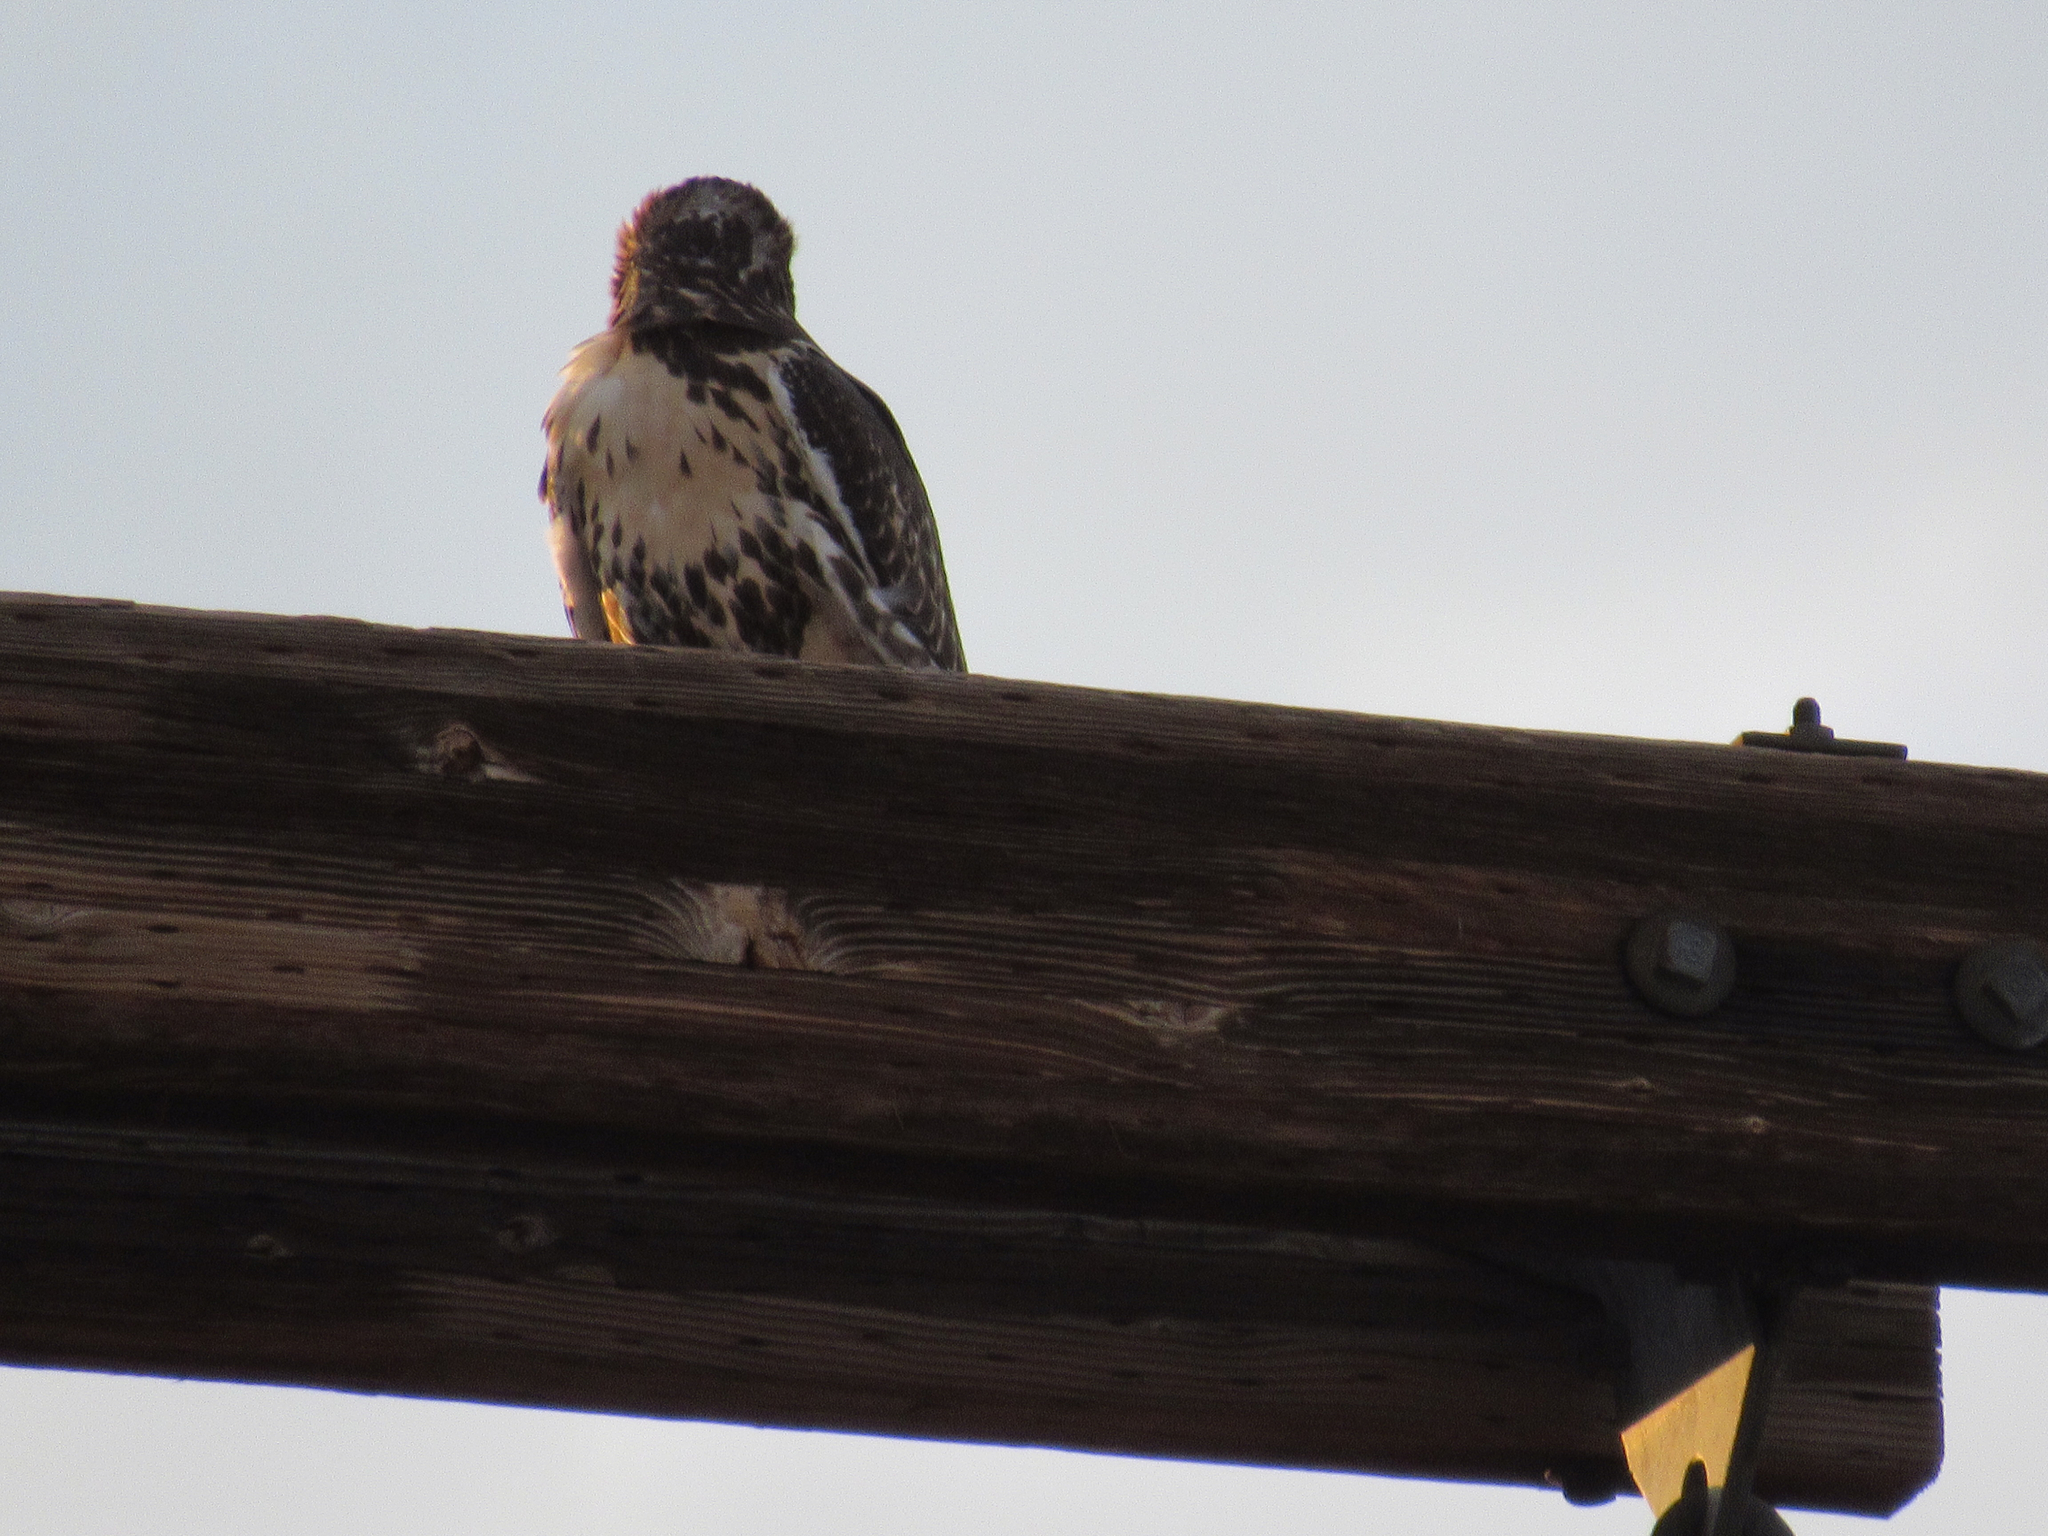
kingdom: Animalia
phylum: Chordata
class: Aves
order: Accipitriformes
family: Accipitridae
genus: Buteo
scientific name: Buteo jamaicensis
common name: Red-tailed hawk
